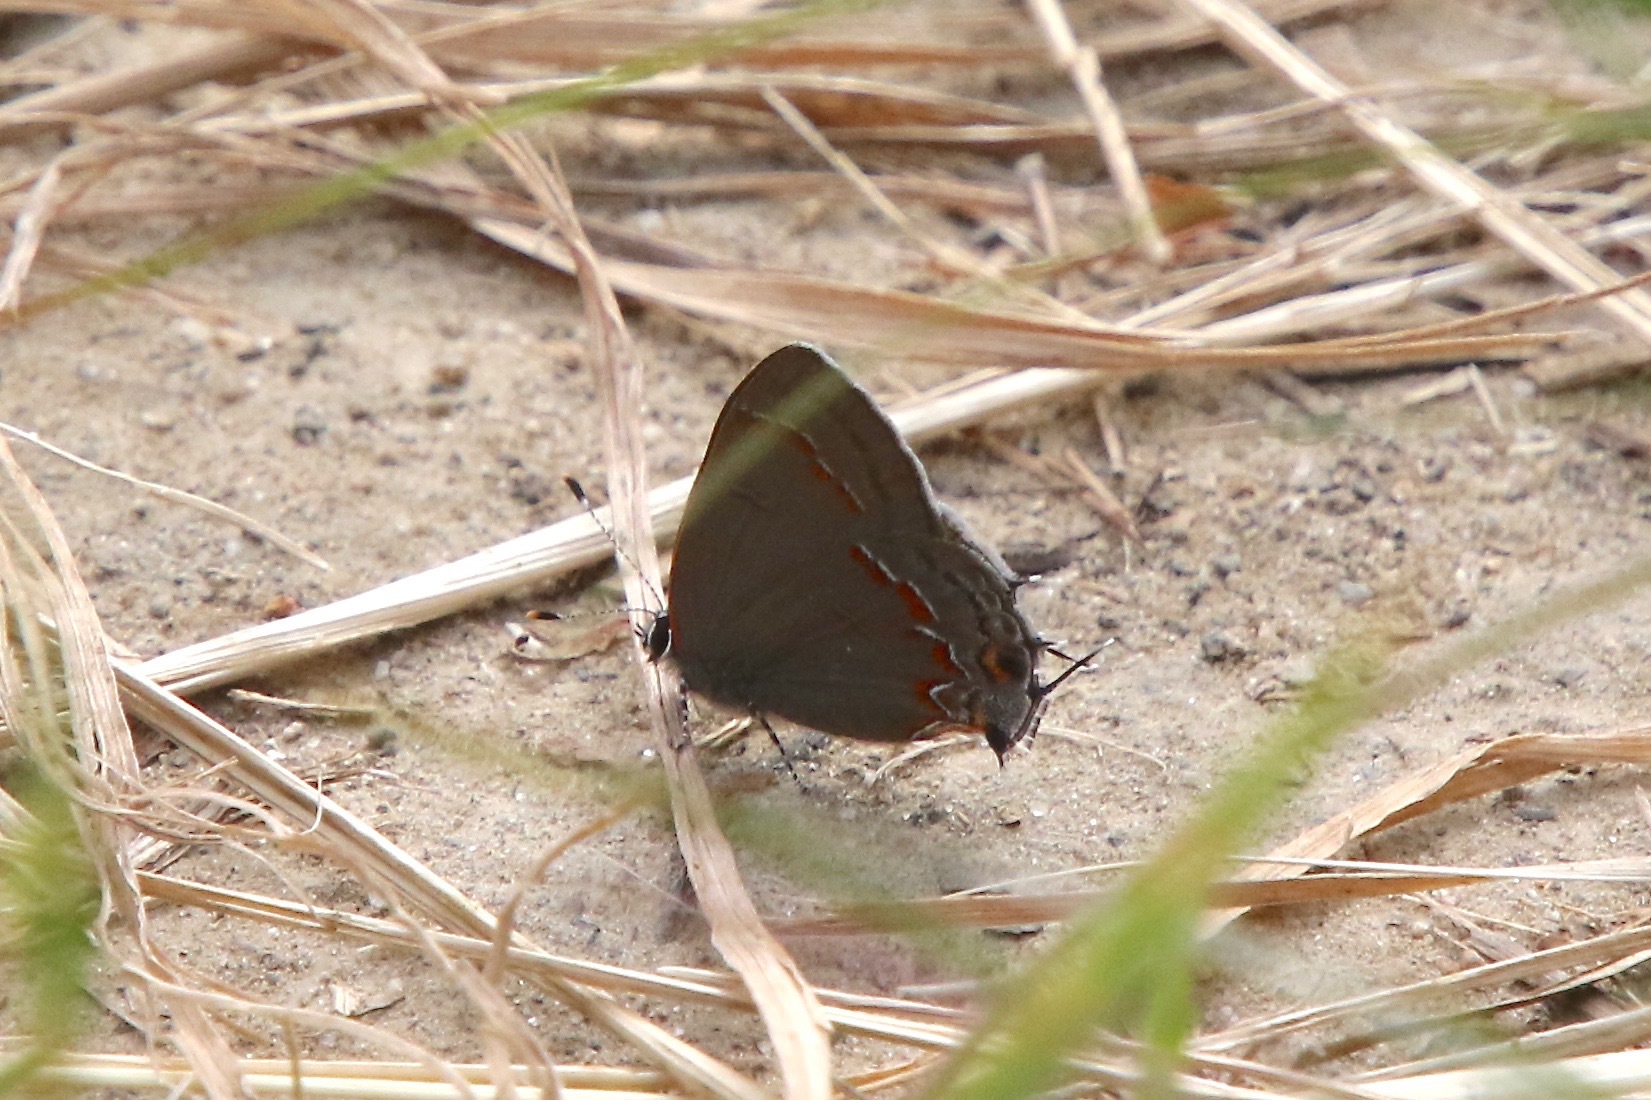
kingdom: Animalia
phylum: Arthropoda
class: Insecta
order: Lepidoptera
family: Lycaenidae
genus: Calycopis
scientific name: Calycopis cecrops
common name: Red-banded hairstreak
